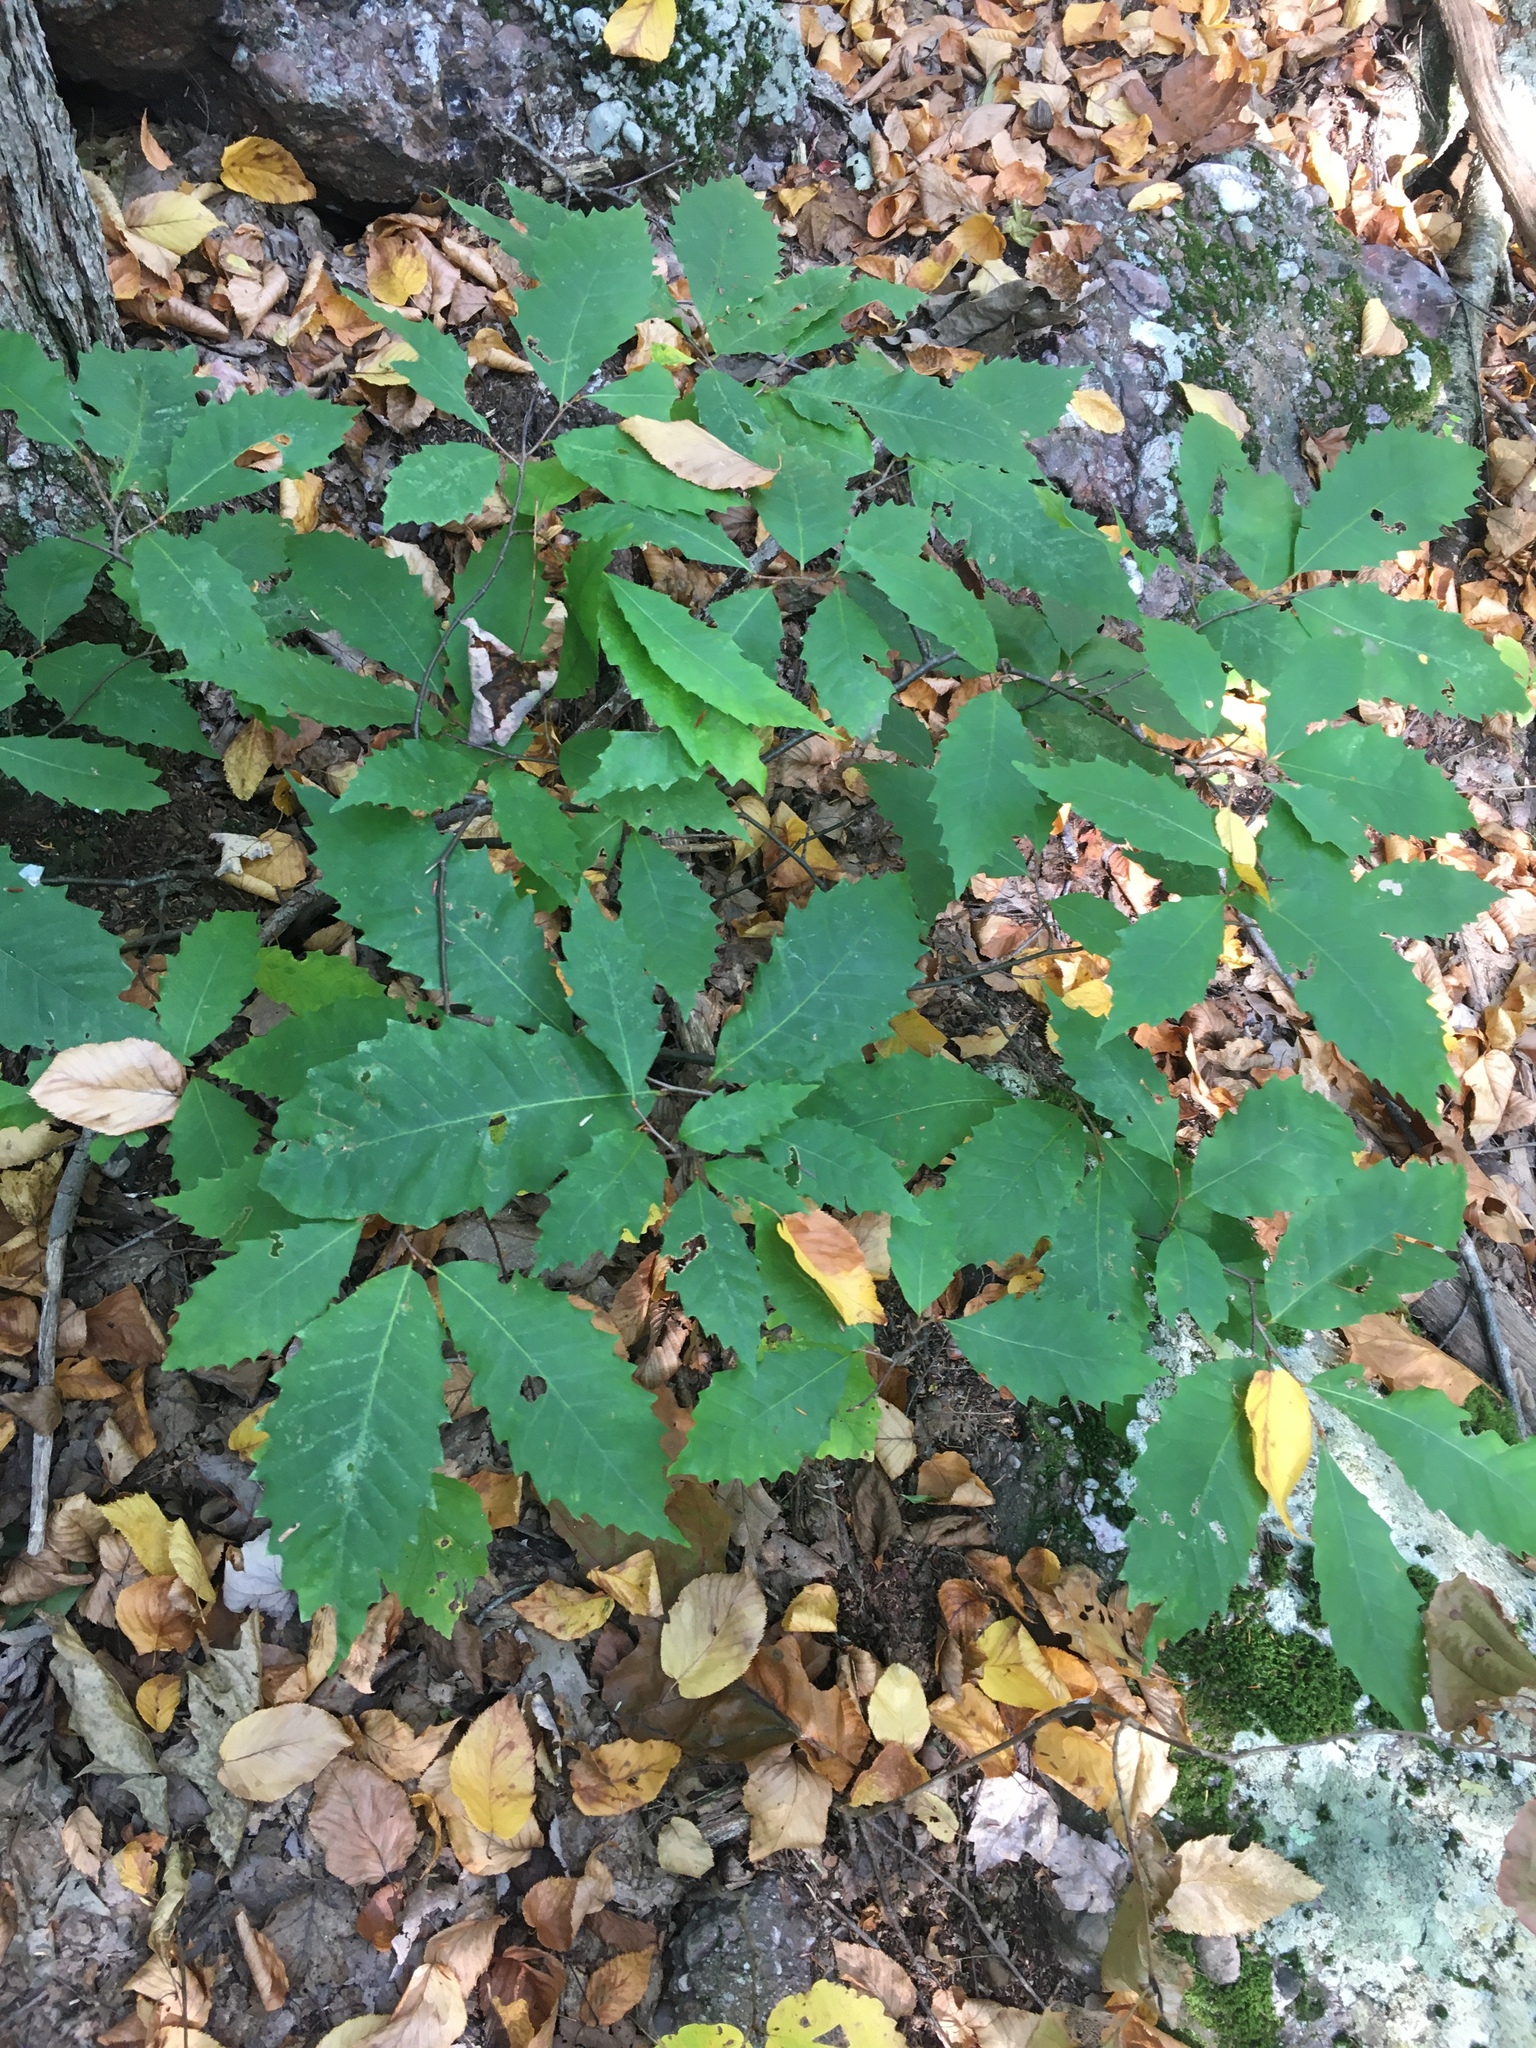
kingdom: Plantae
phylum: Tracheophyta
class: Magnoliopsida
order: Fagales
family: Fagaceae
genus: Castanea
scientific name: Castanea dentata
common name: American chestnut
